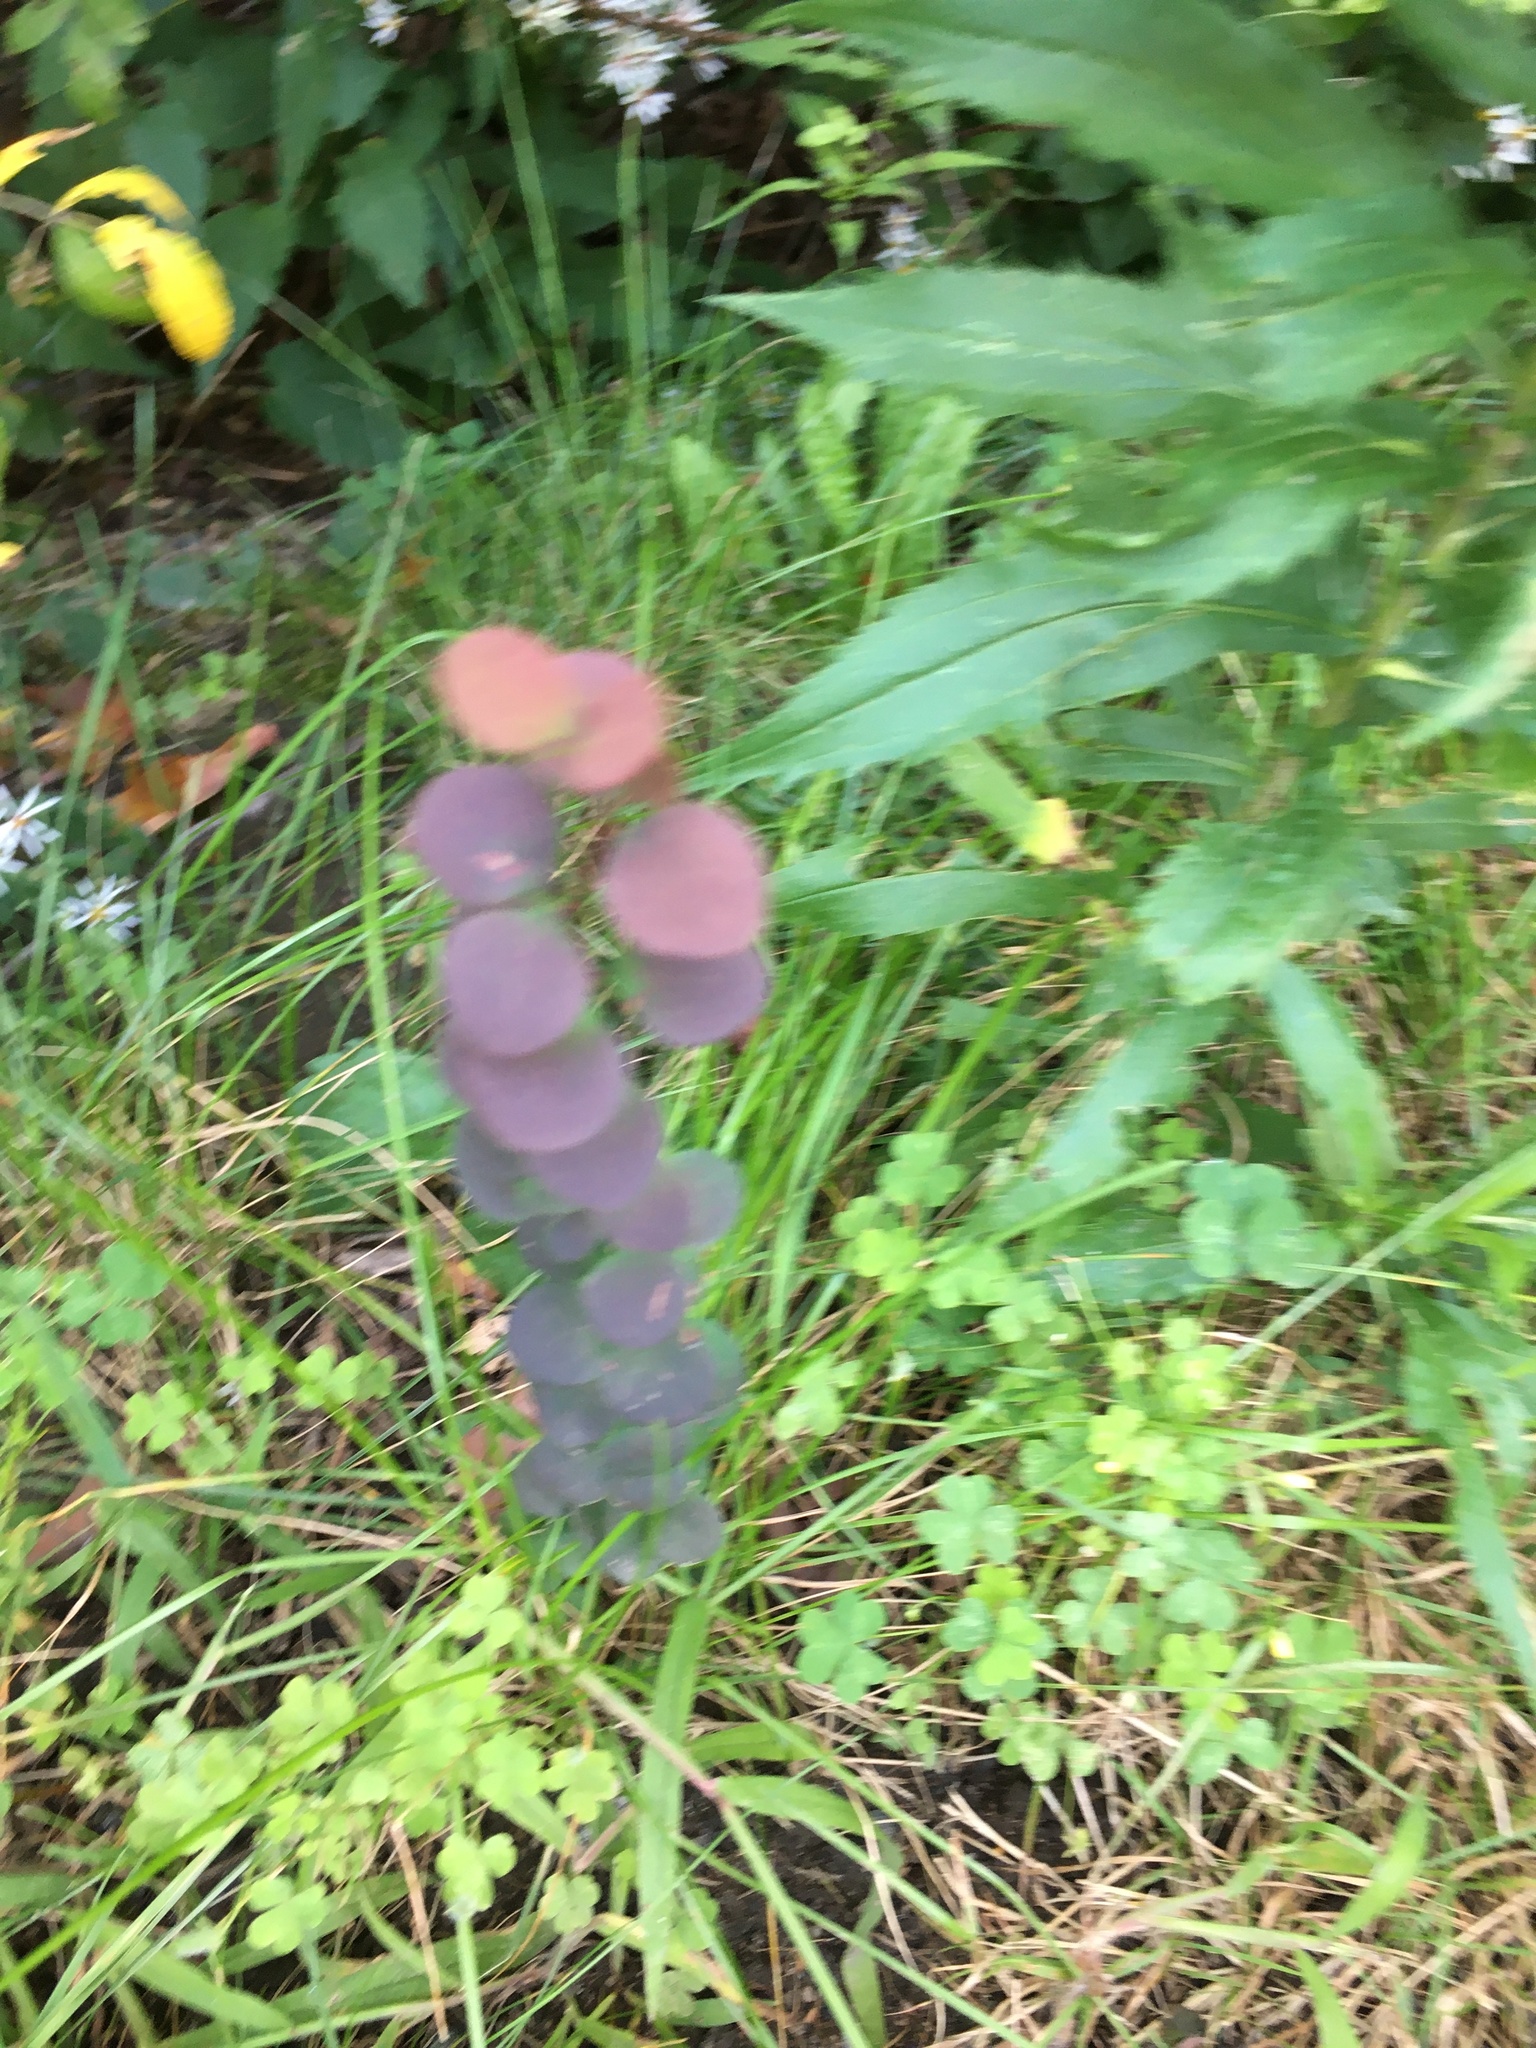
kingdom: Plantae
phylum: Tracheophyta
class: Magnoliopsida
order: Ranunculales
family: Berberidaceae
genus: Berberis
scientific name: Berberis thunbergii
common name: Japanese barberry
